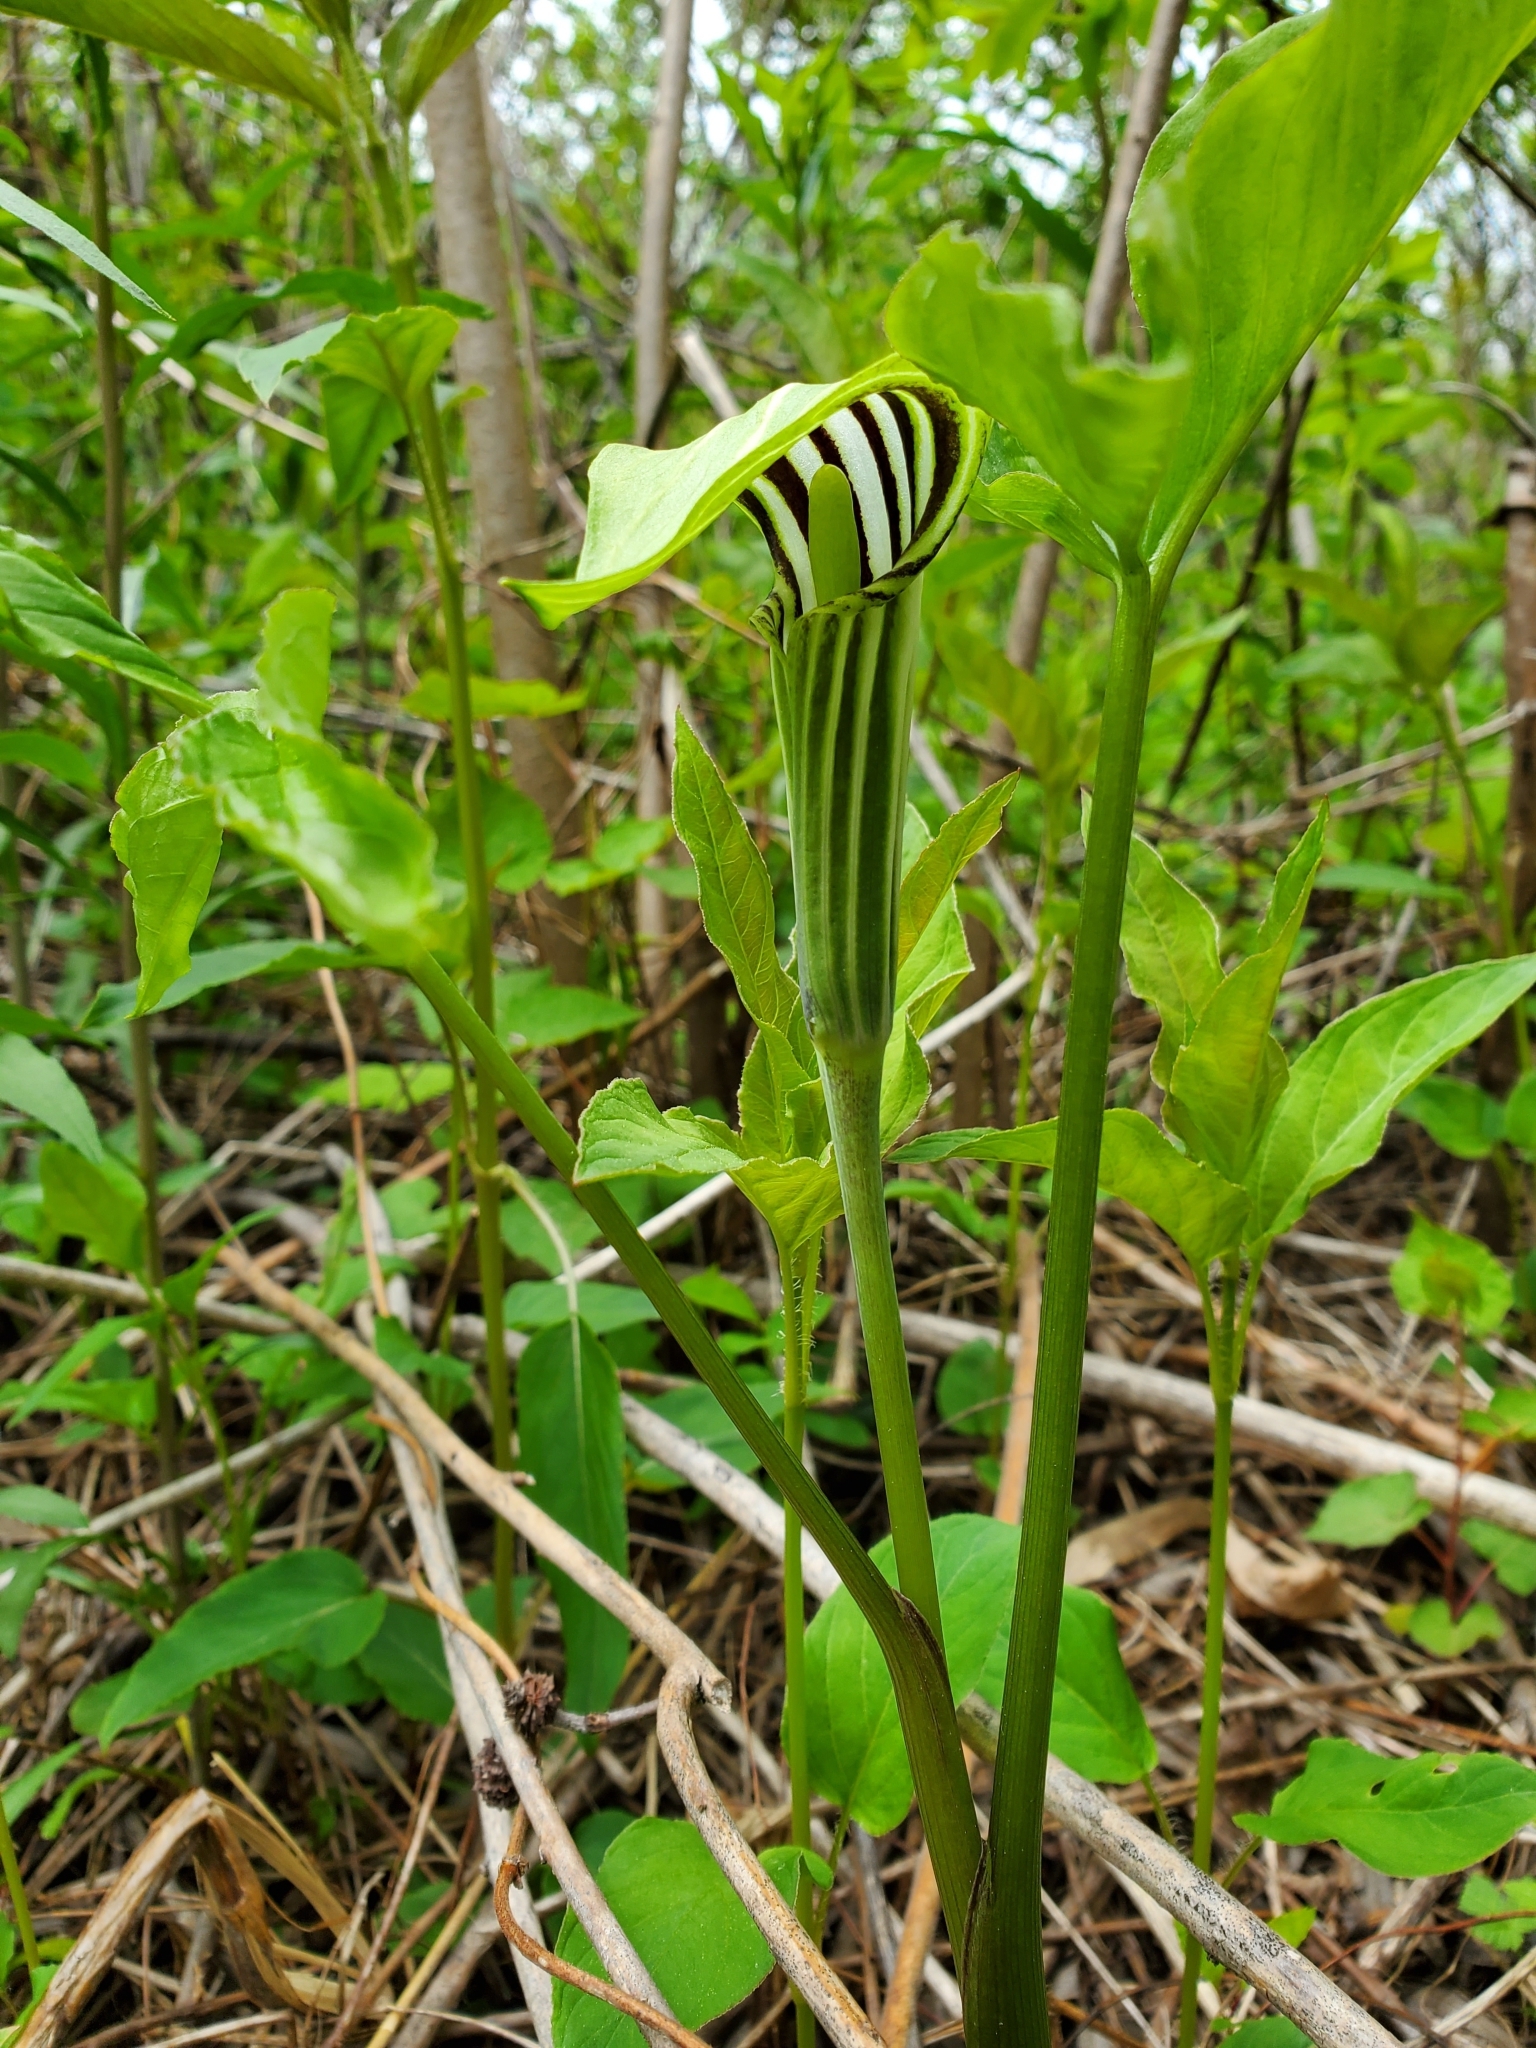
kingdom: Plantae
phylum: Tracheophyta
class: Liliopsida
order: Alismatales
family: Araceae
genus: Arisaema
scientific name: Arisaema stewardsonii
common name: Swamp jack-in-the-pulpit
